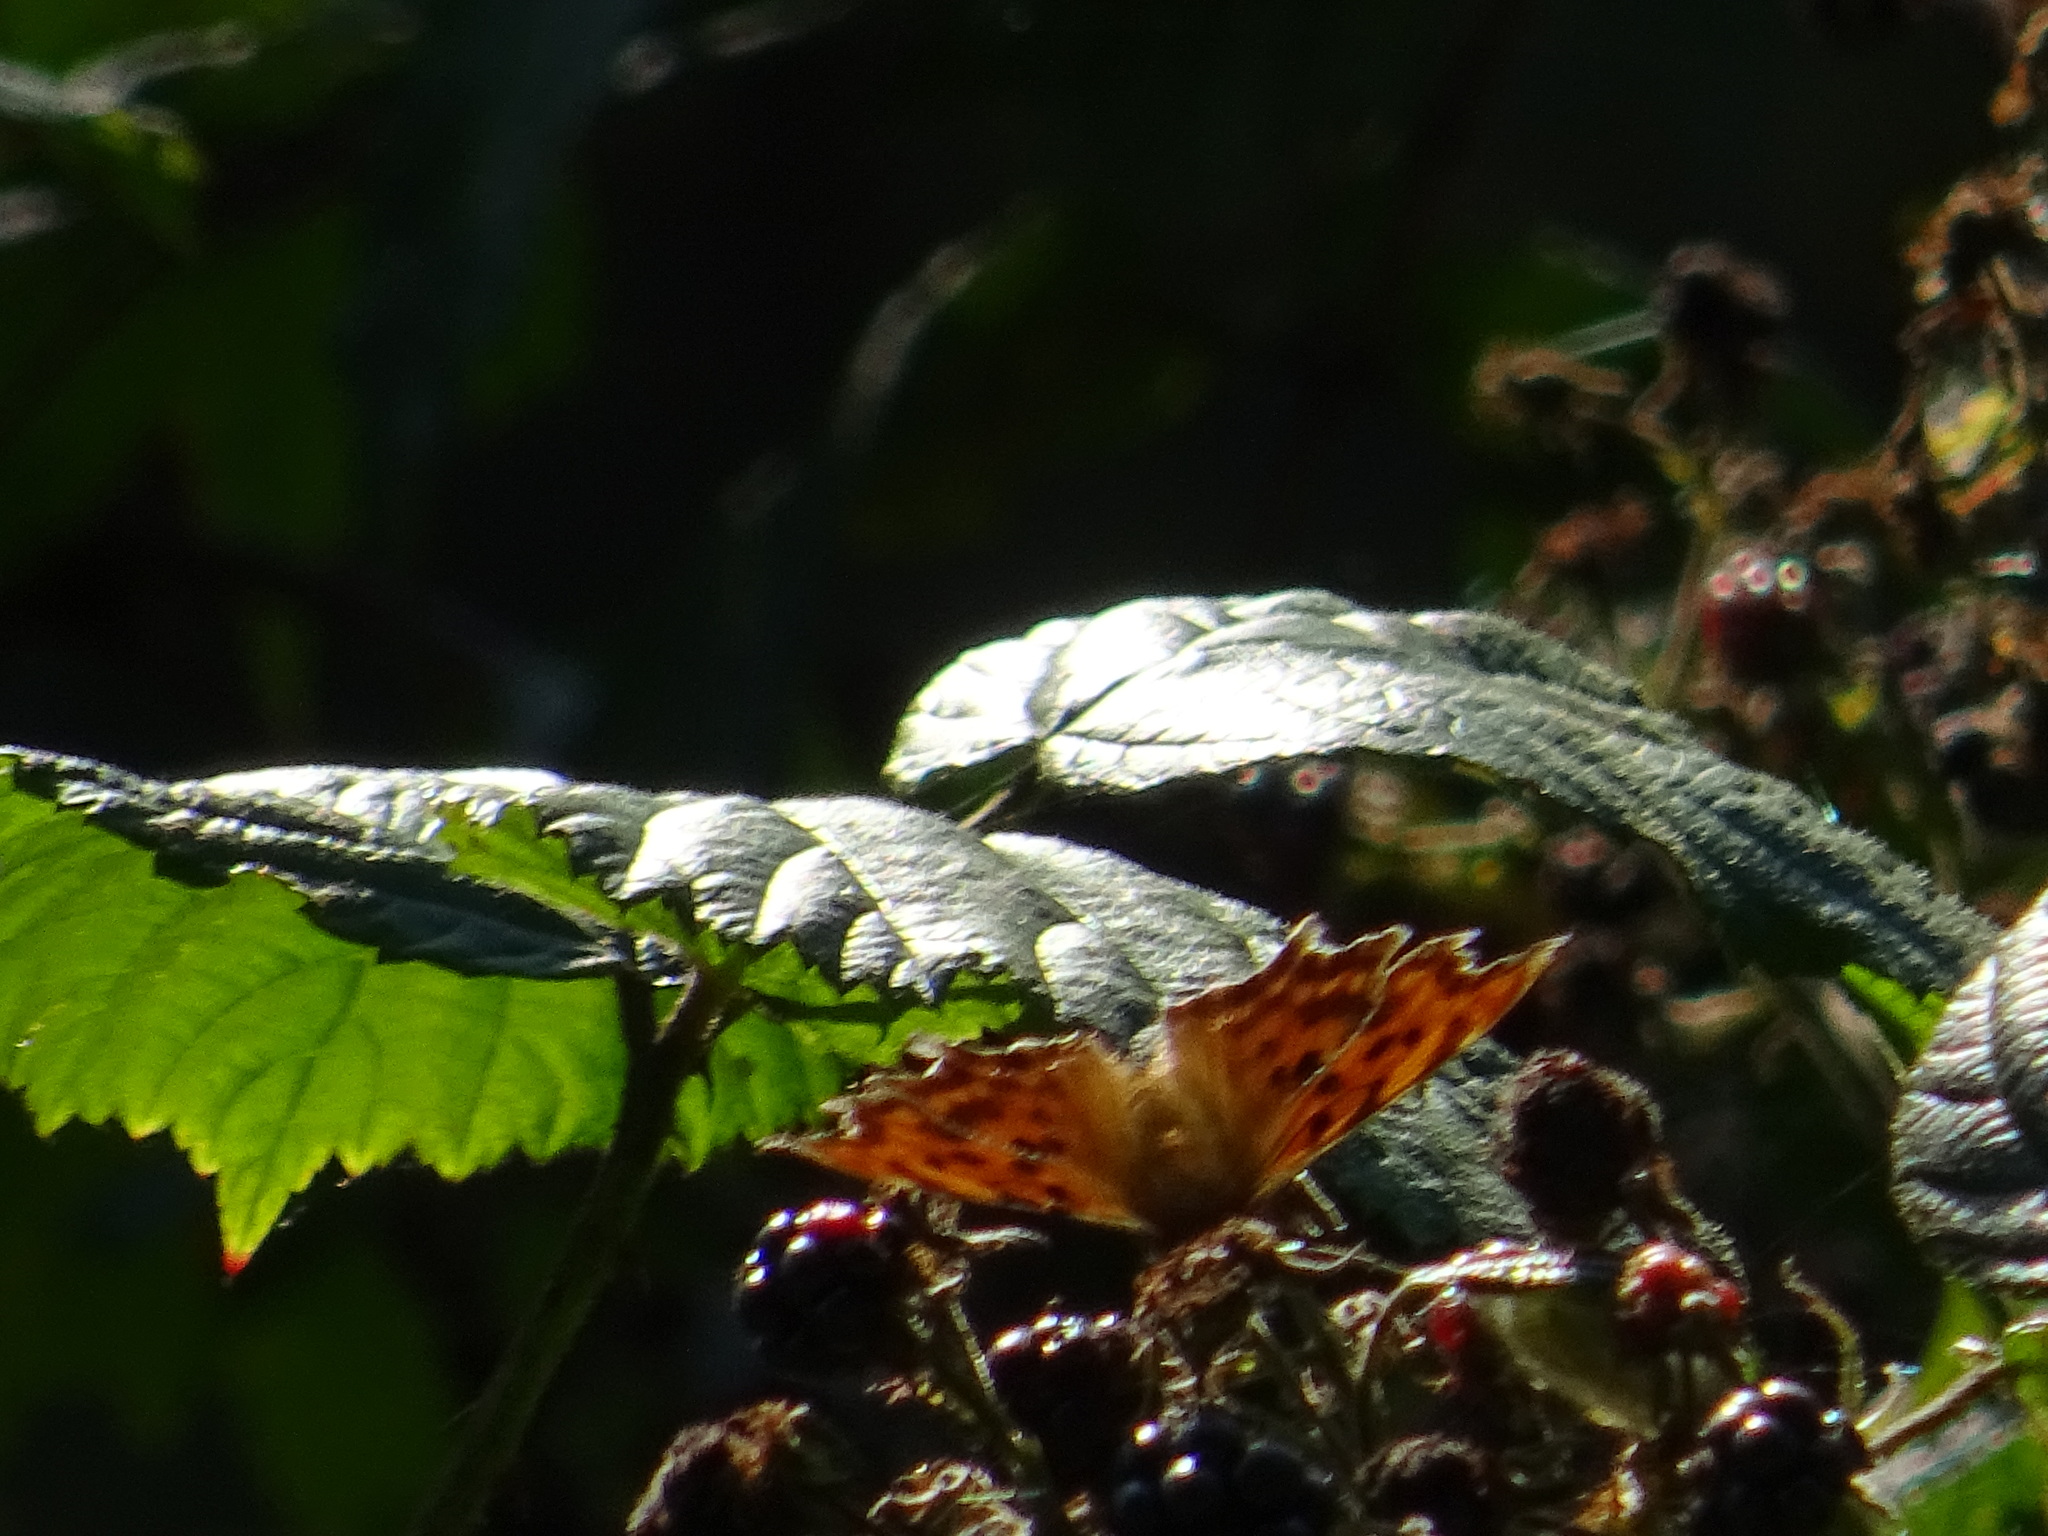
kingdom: Animalia
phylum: Arthropoda
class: Insecta
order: Lepidoptera
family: Nymphalidae
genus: Polygonia
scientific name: Polygonia c-album
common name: Comma
